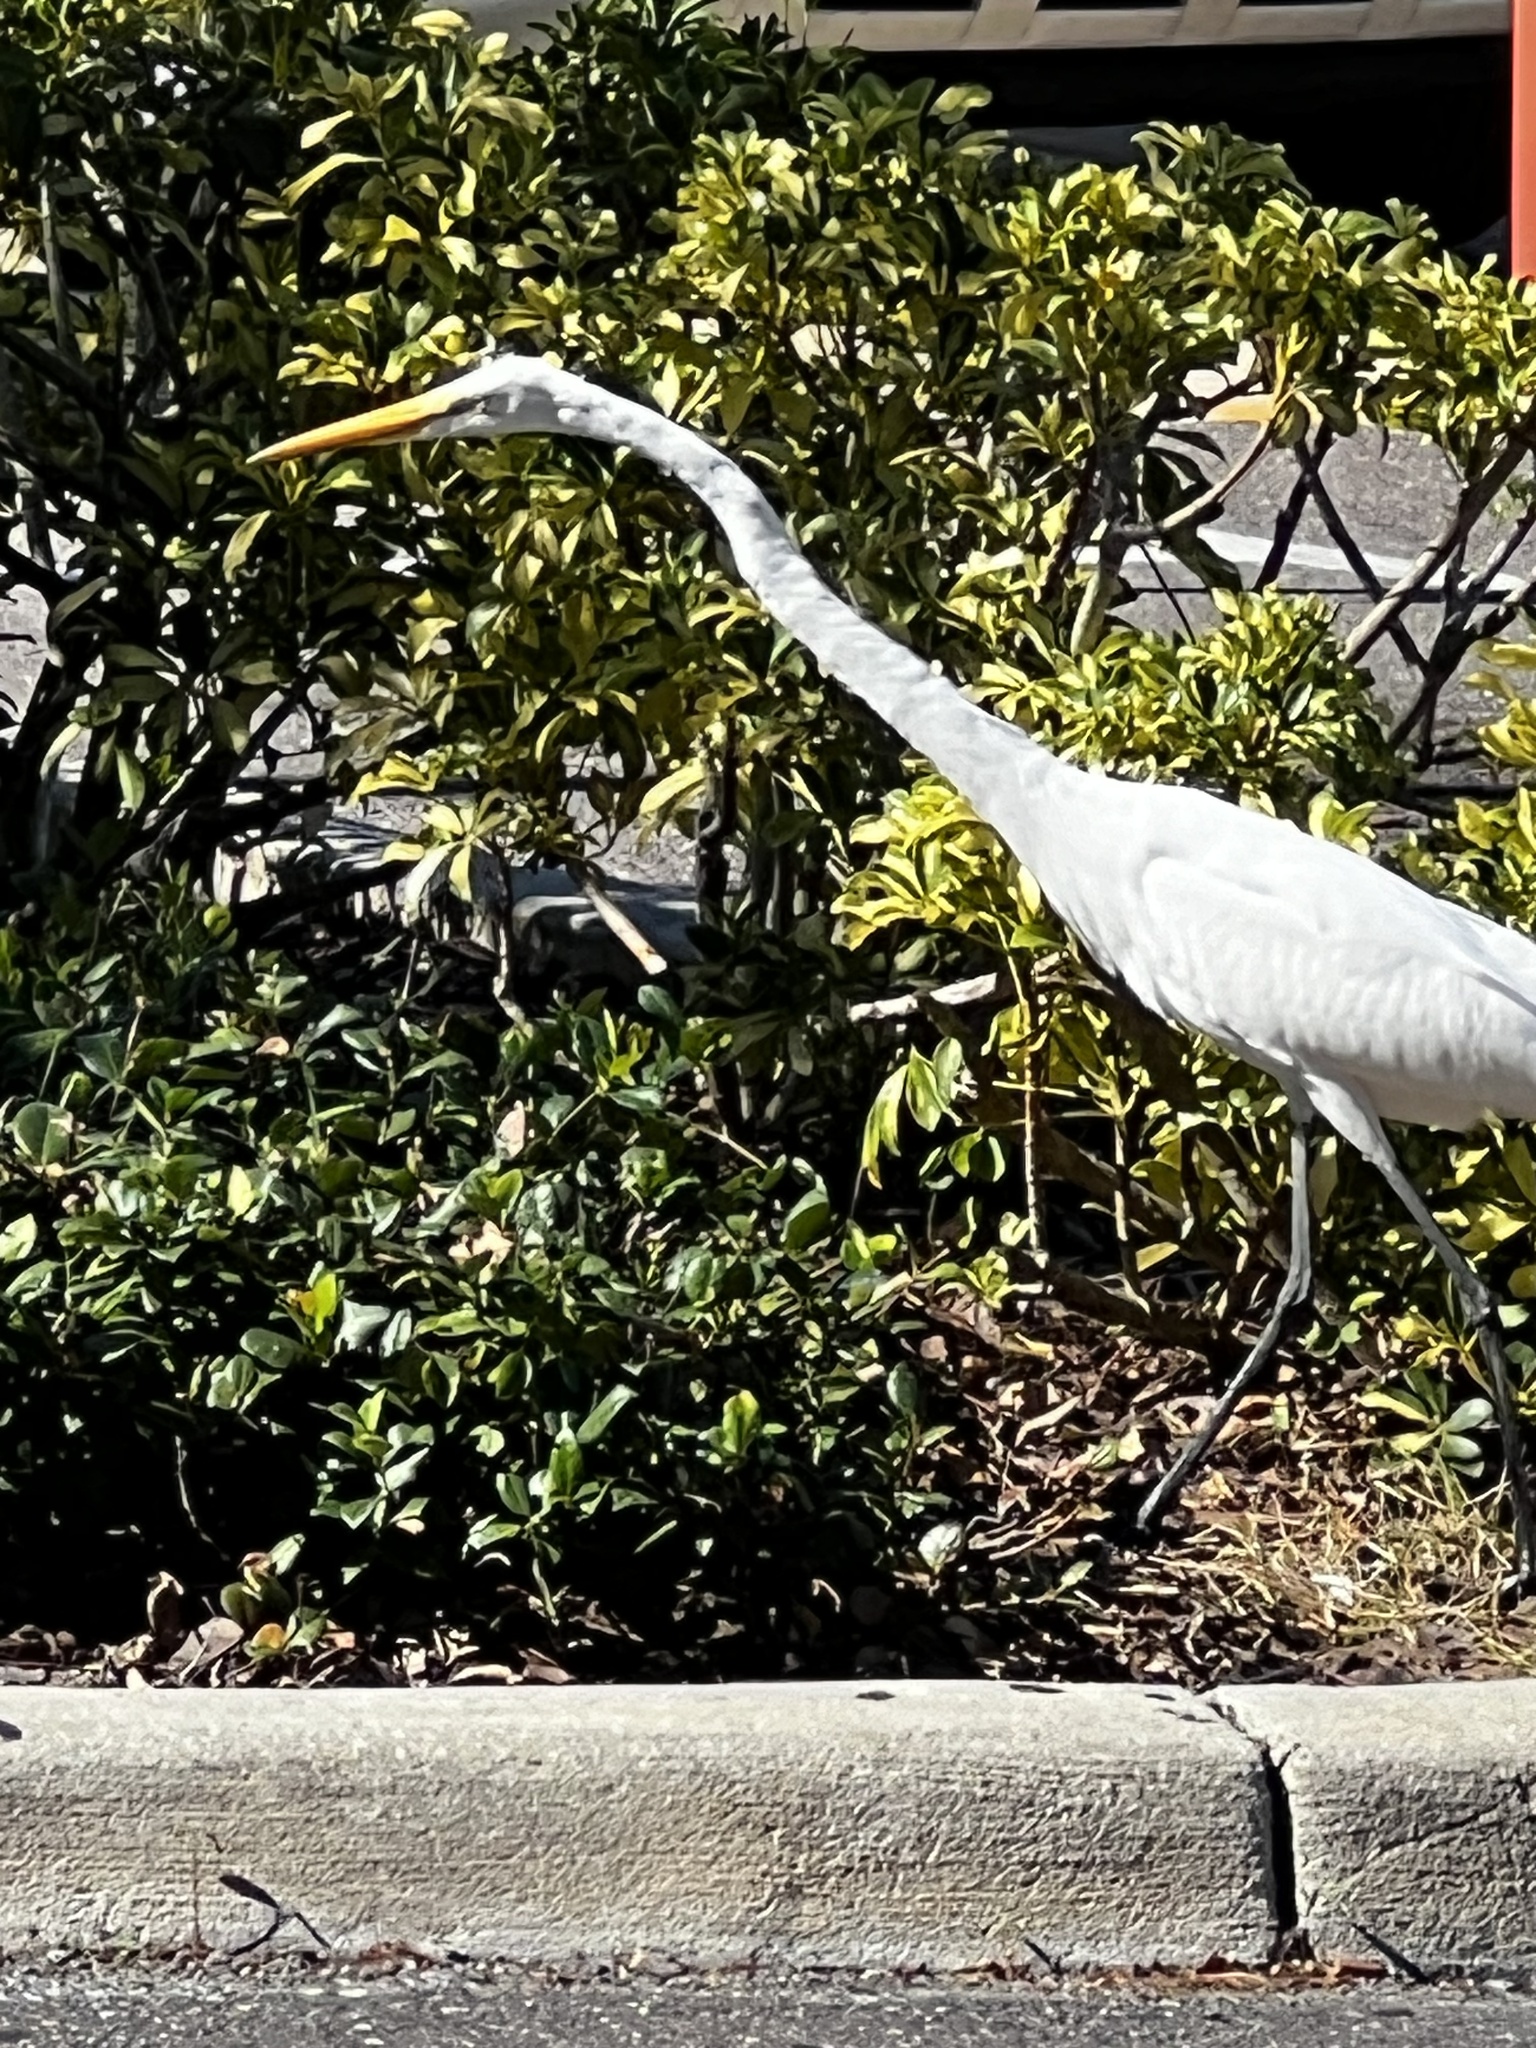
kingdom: Animalia
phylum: Chordata
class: Aves
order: Pelecaniformes
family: Ardeidae
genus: Ardea
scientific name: Ardea alba
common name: Great egret
